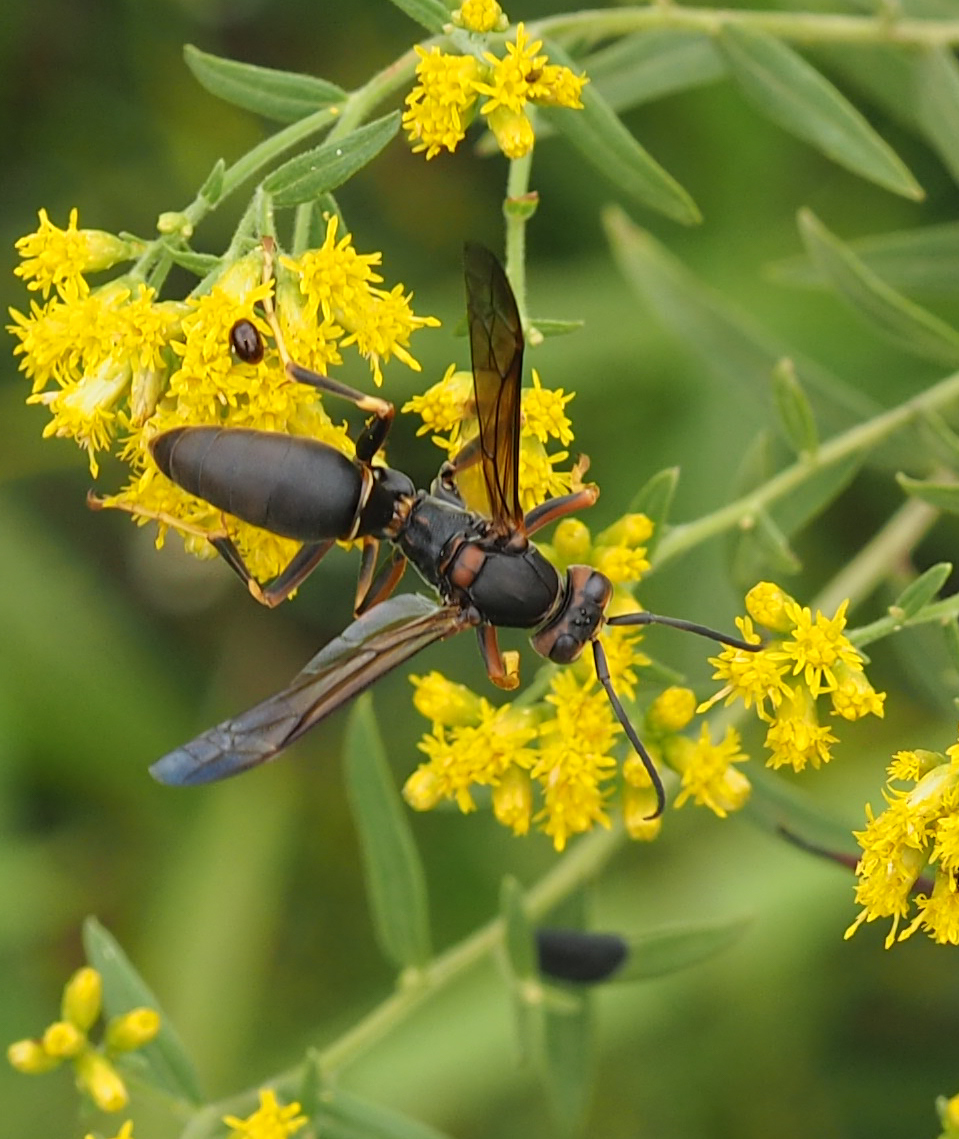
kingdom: Animalia
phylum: Arthropoda
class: Insecta
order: Hymenoptera
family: Eumenidae
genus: Polistes
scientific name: Polistes fuscatus
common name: Dark paper wasp
